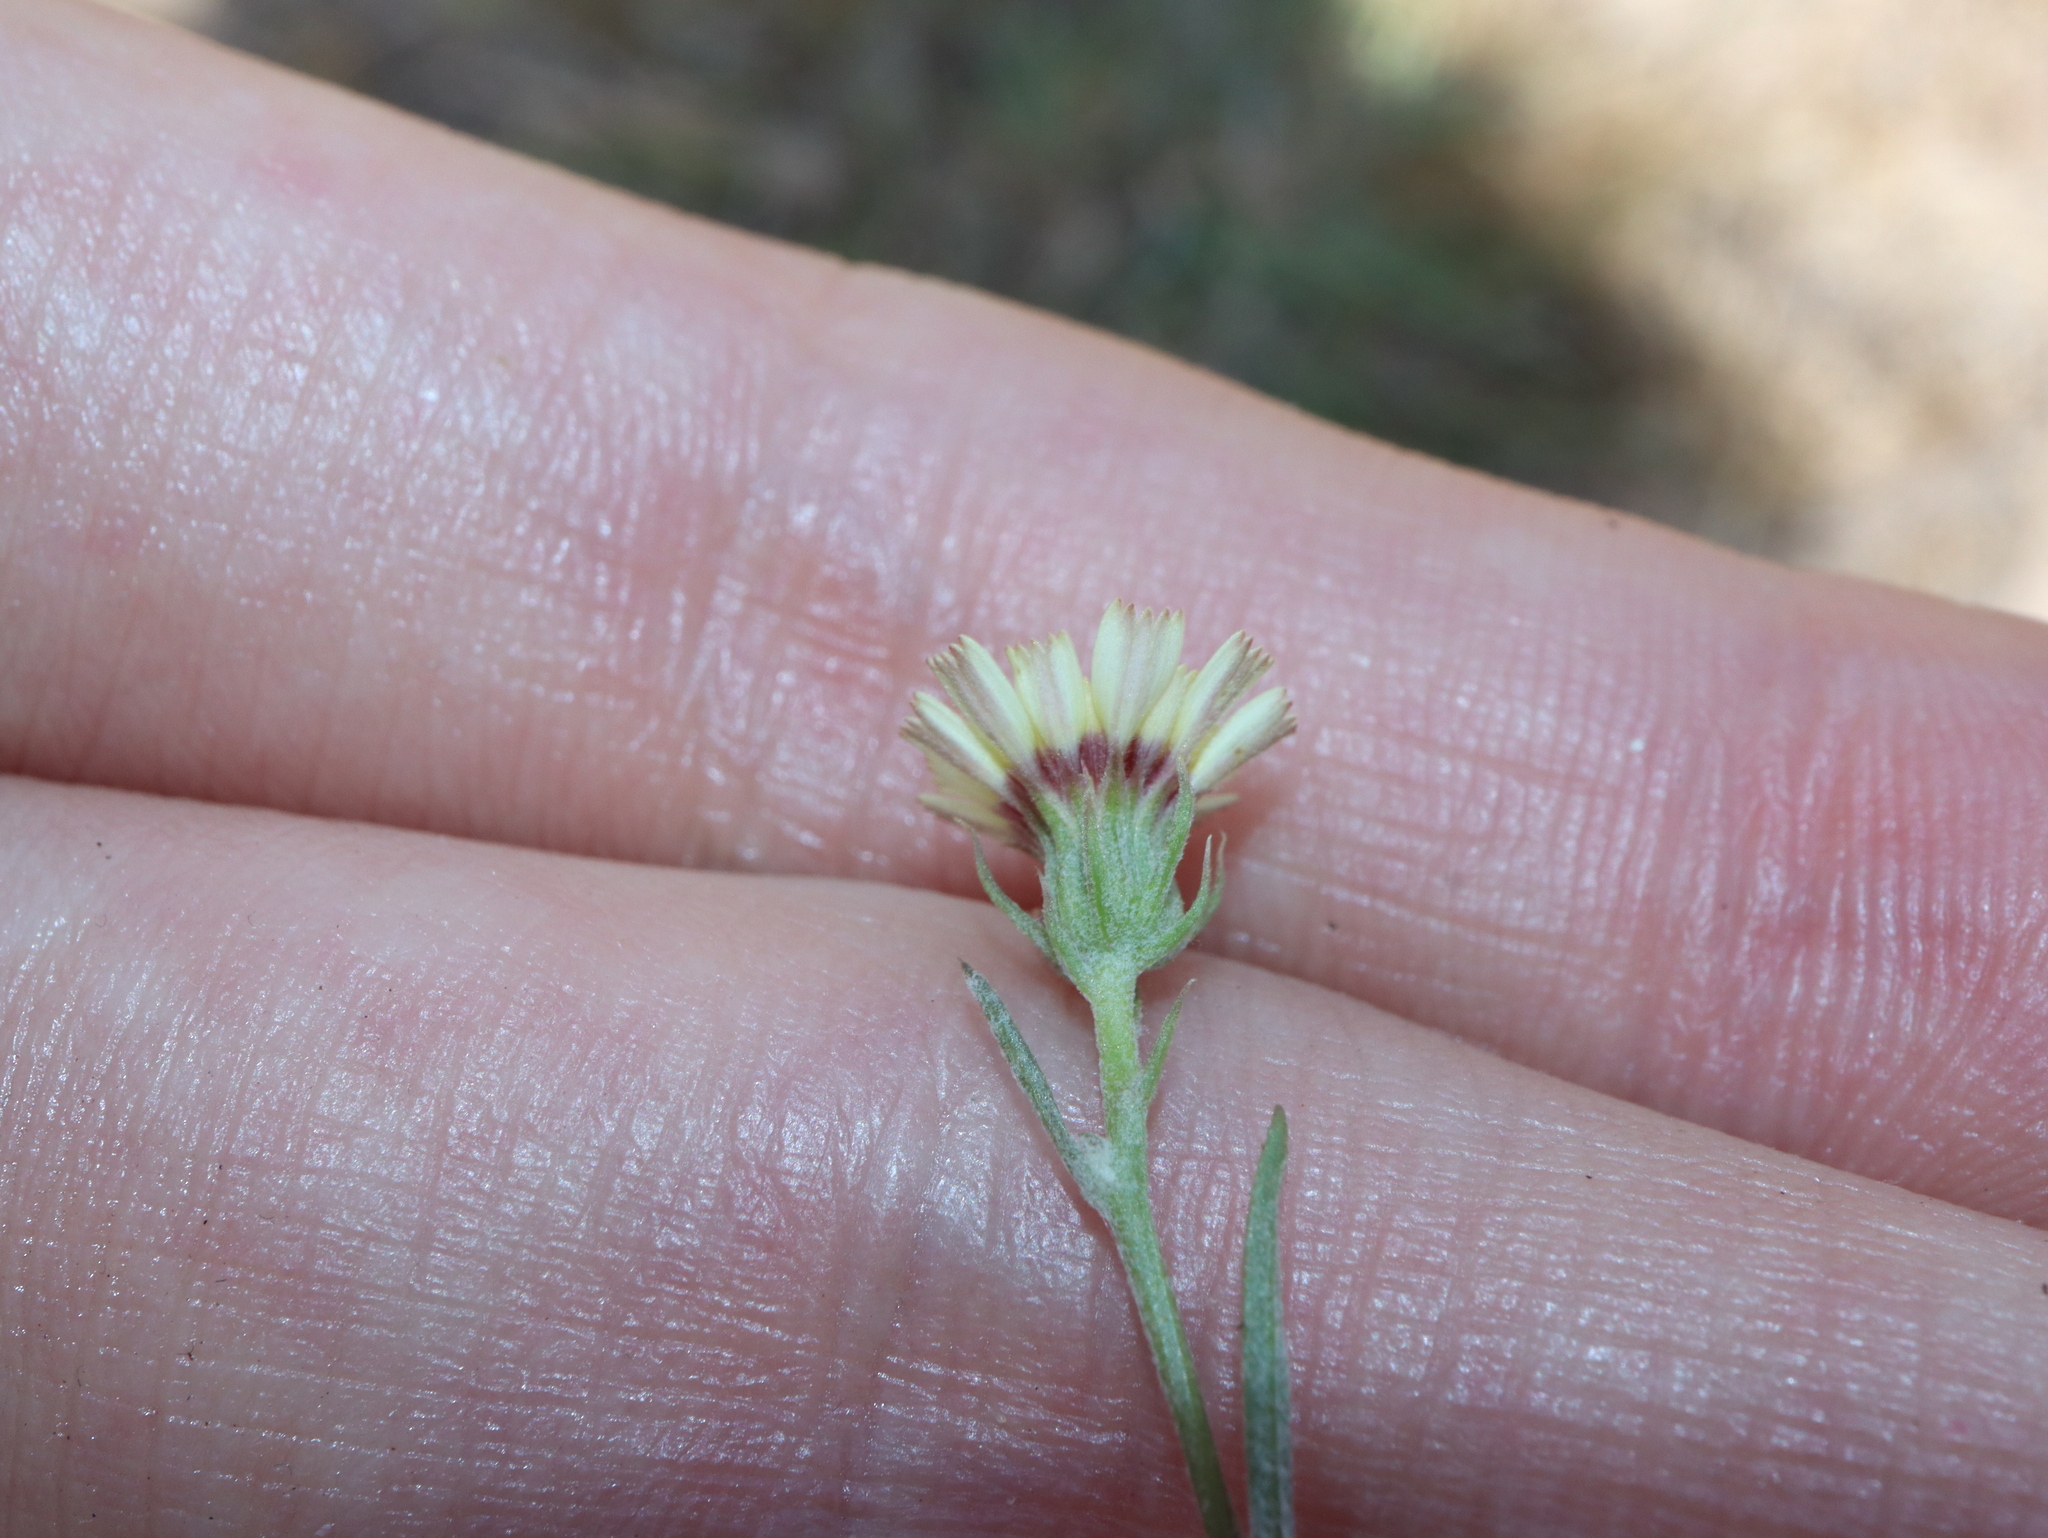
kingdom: Plantae
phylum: Tracheophyta
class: Magnoliopsida
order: Asterales
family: Asteraceae
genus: Tolpis
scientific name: Tolpis barbata
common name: Yellow hawkweed
